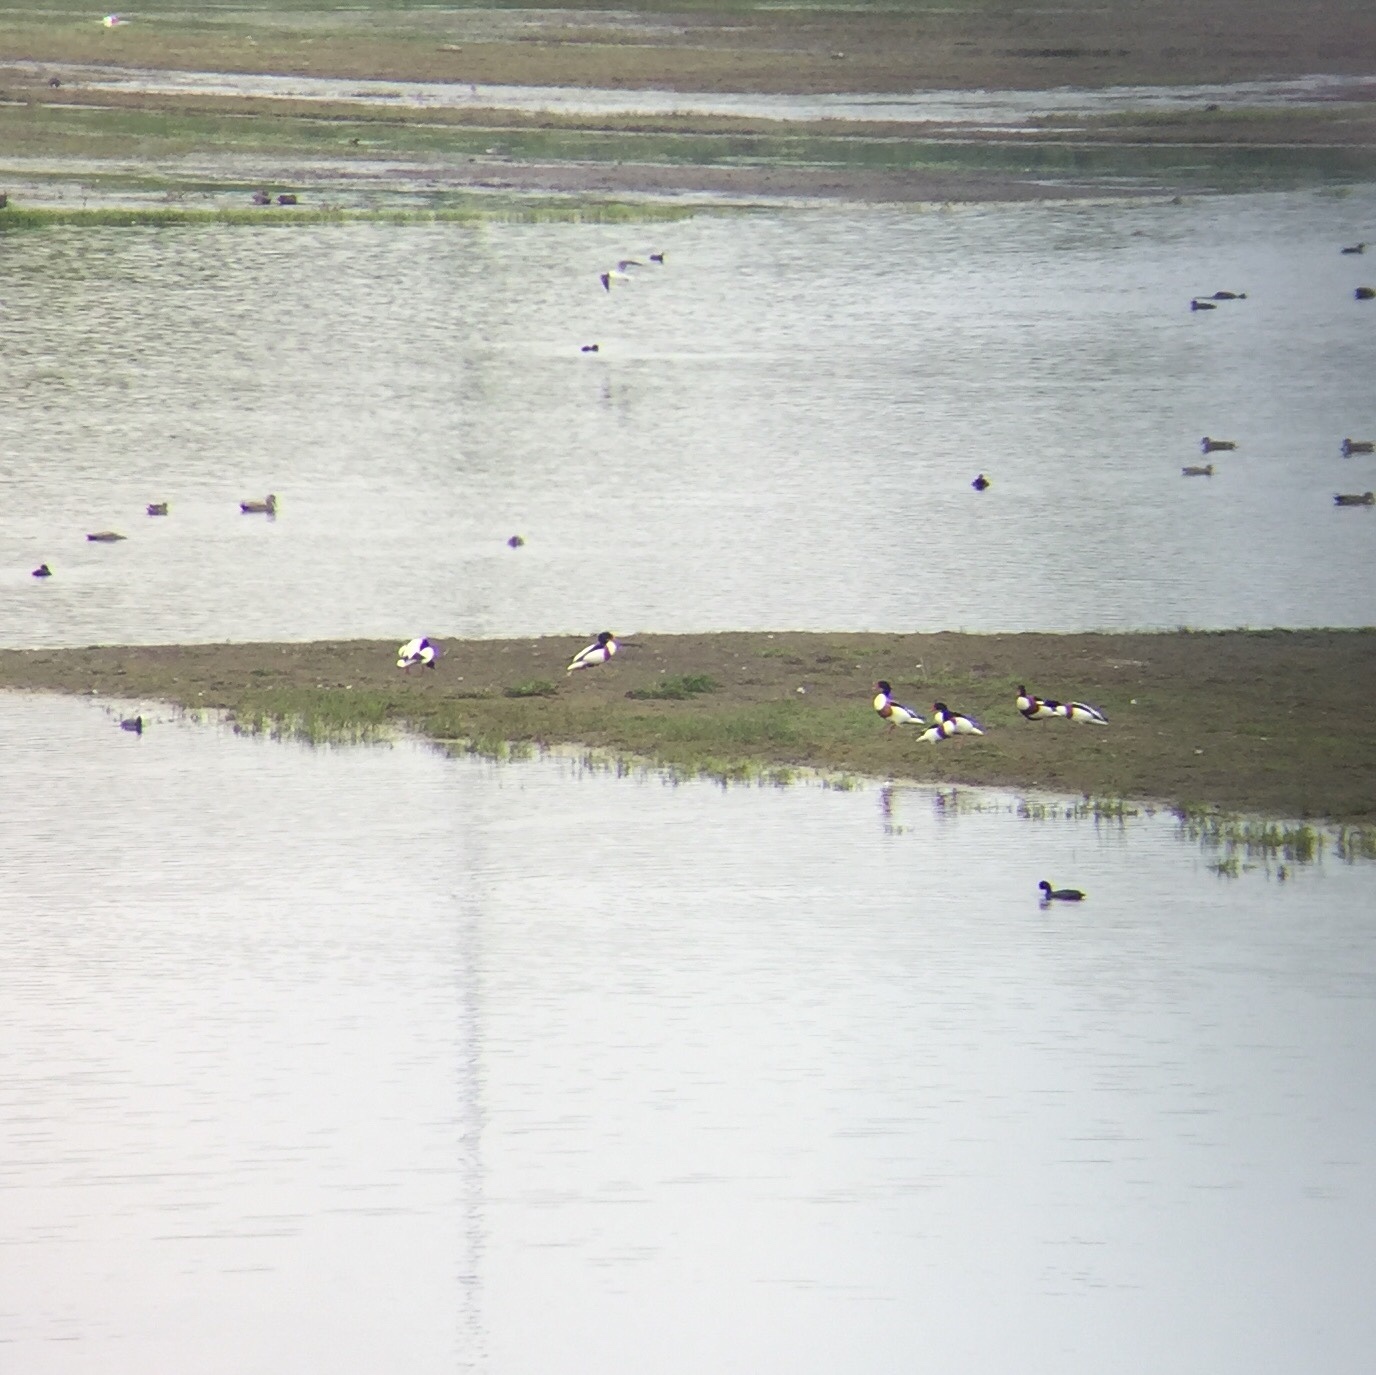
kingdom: Animalia
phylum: Chordata
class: Aves
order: Anseriformes
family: Anatidae
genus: Tadorna
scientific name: Tadorna tadorna
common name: Common shelduck
